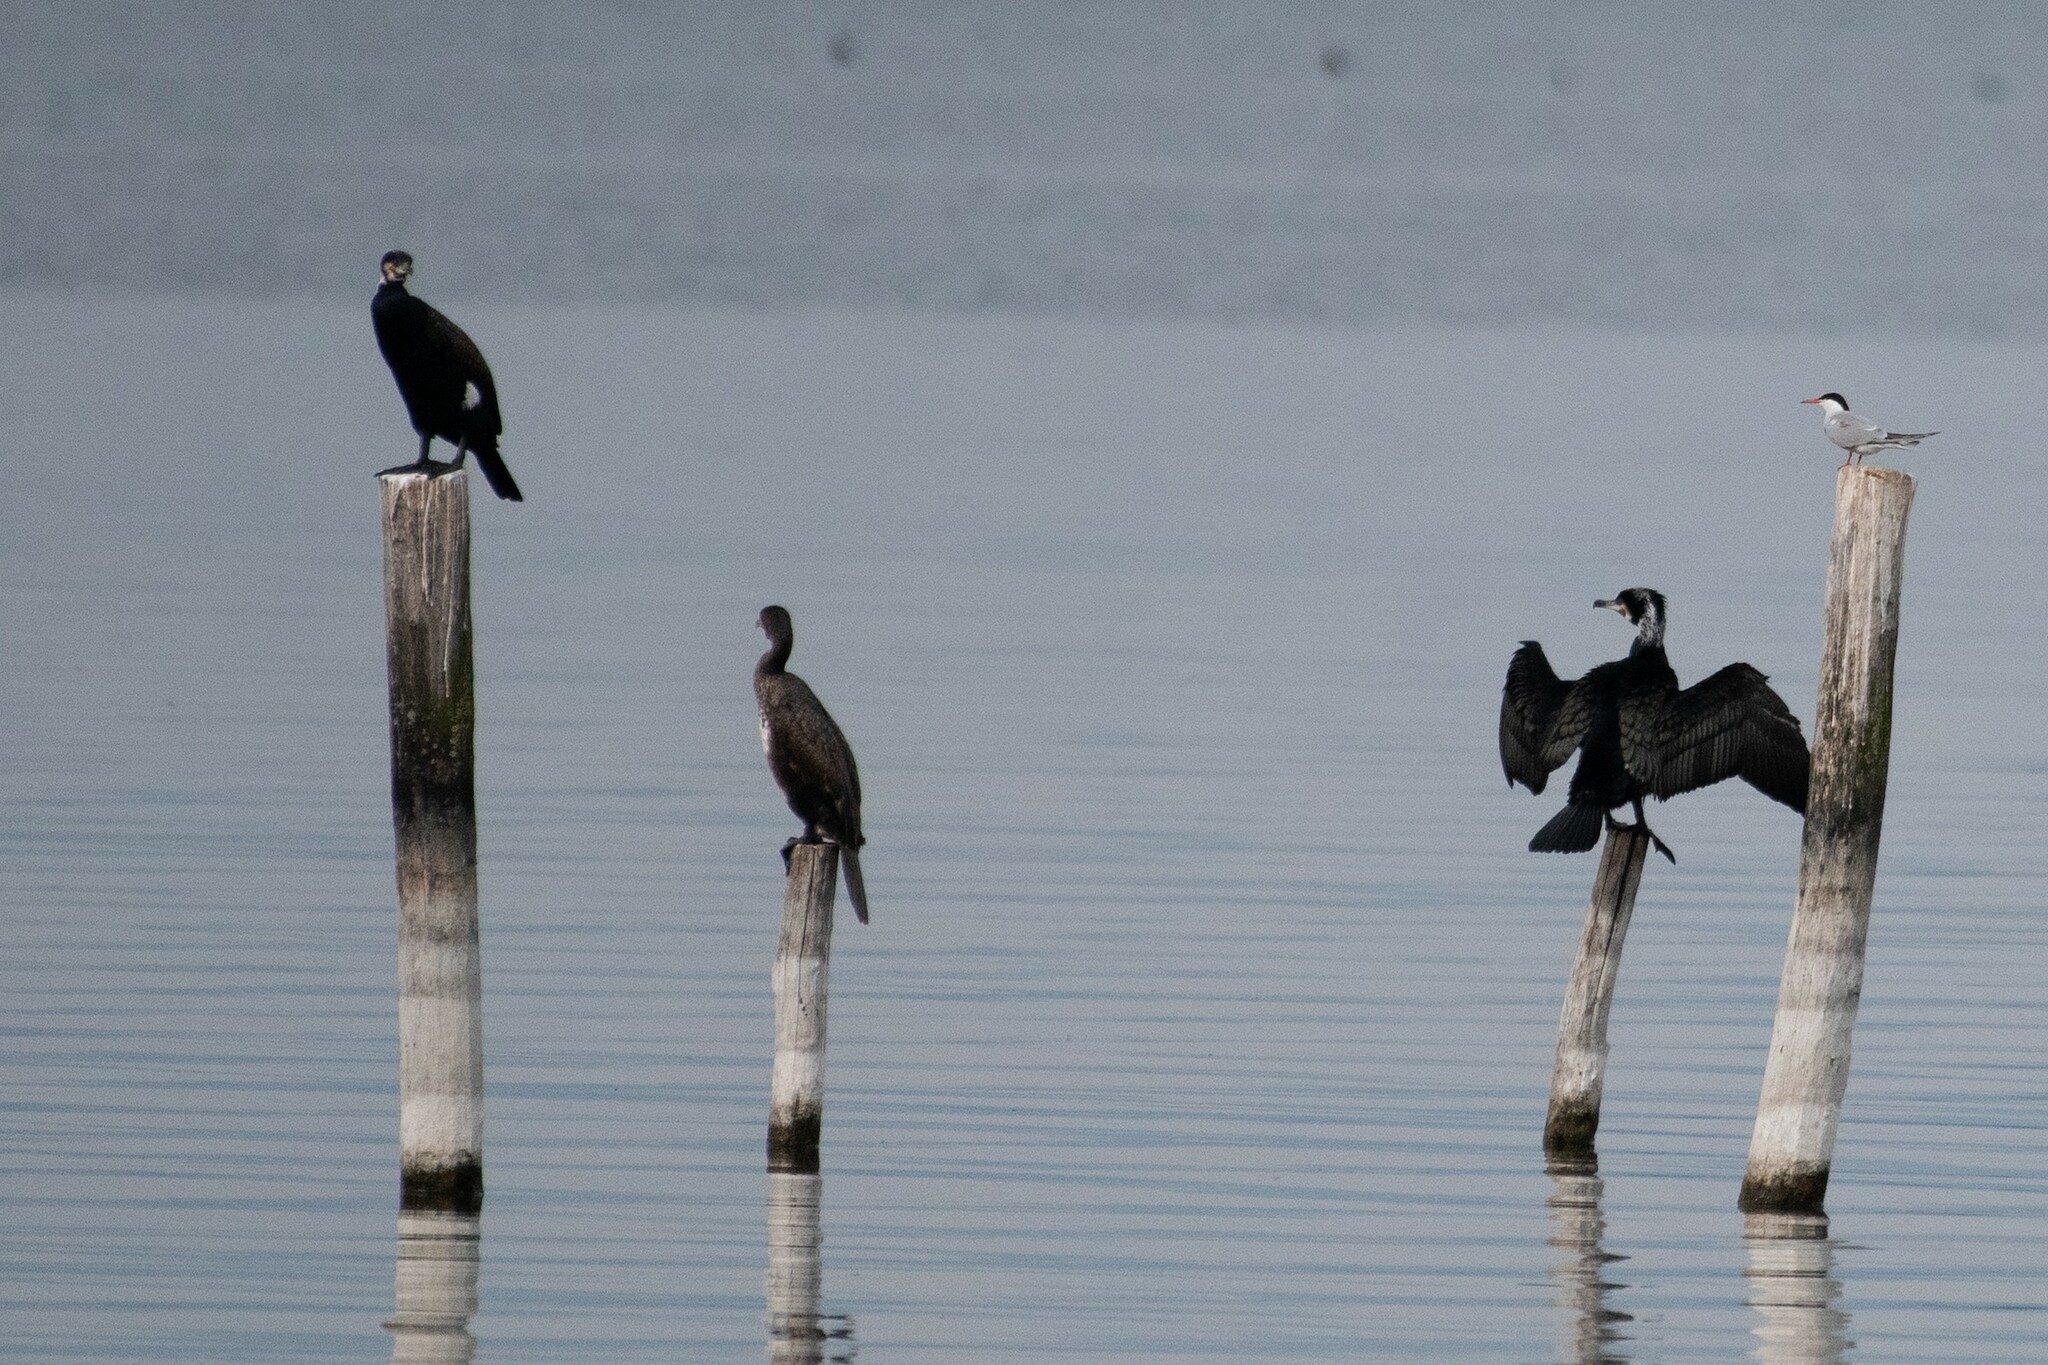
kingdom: Animalia
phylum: Chordata
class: Aves
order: Suliformes
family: Phalacrocoracidae
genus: Phalacrocorax
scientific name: Phalacrocorax carbo
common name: Great cormorant
